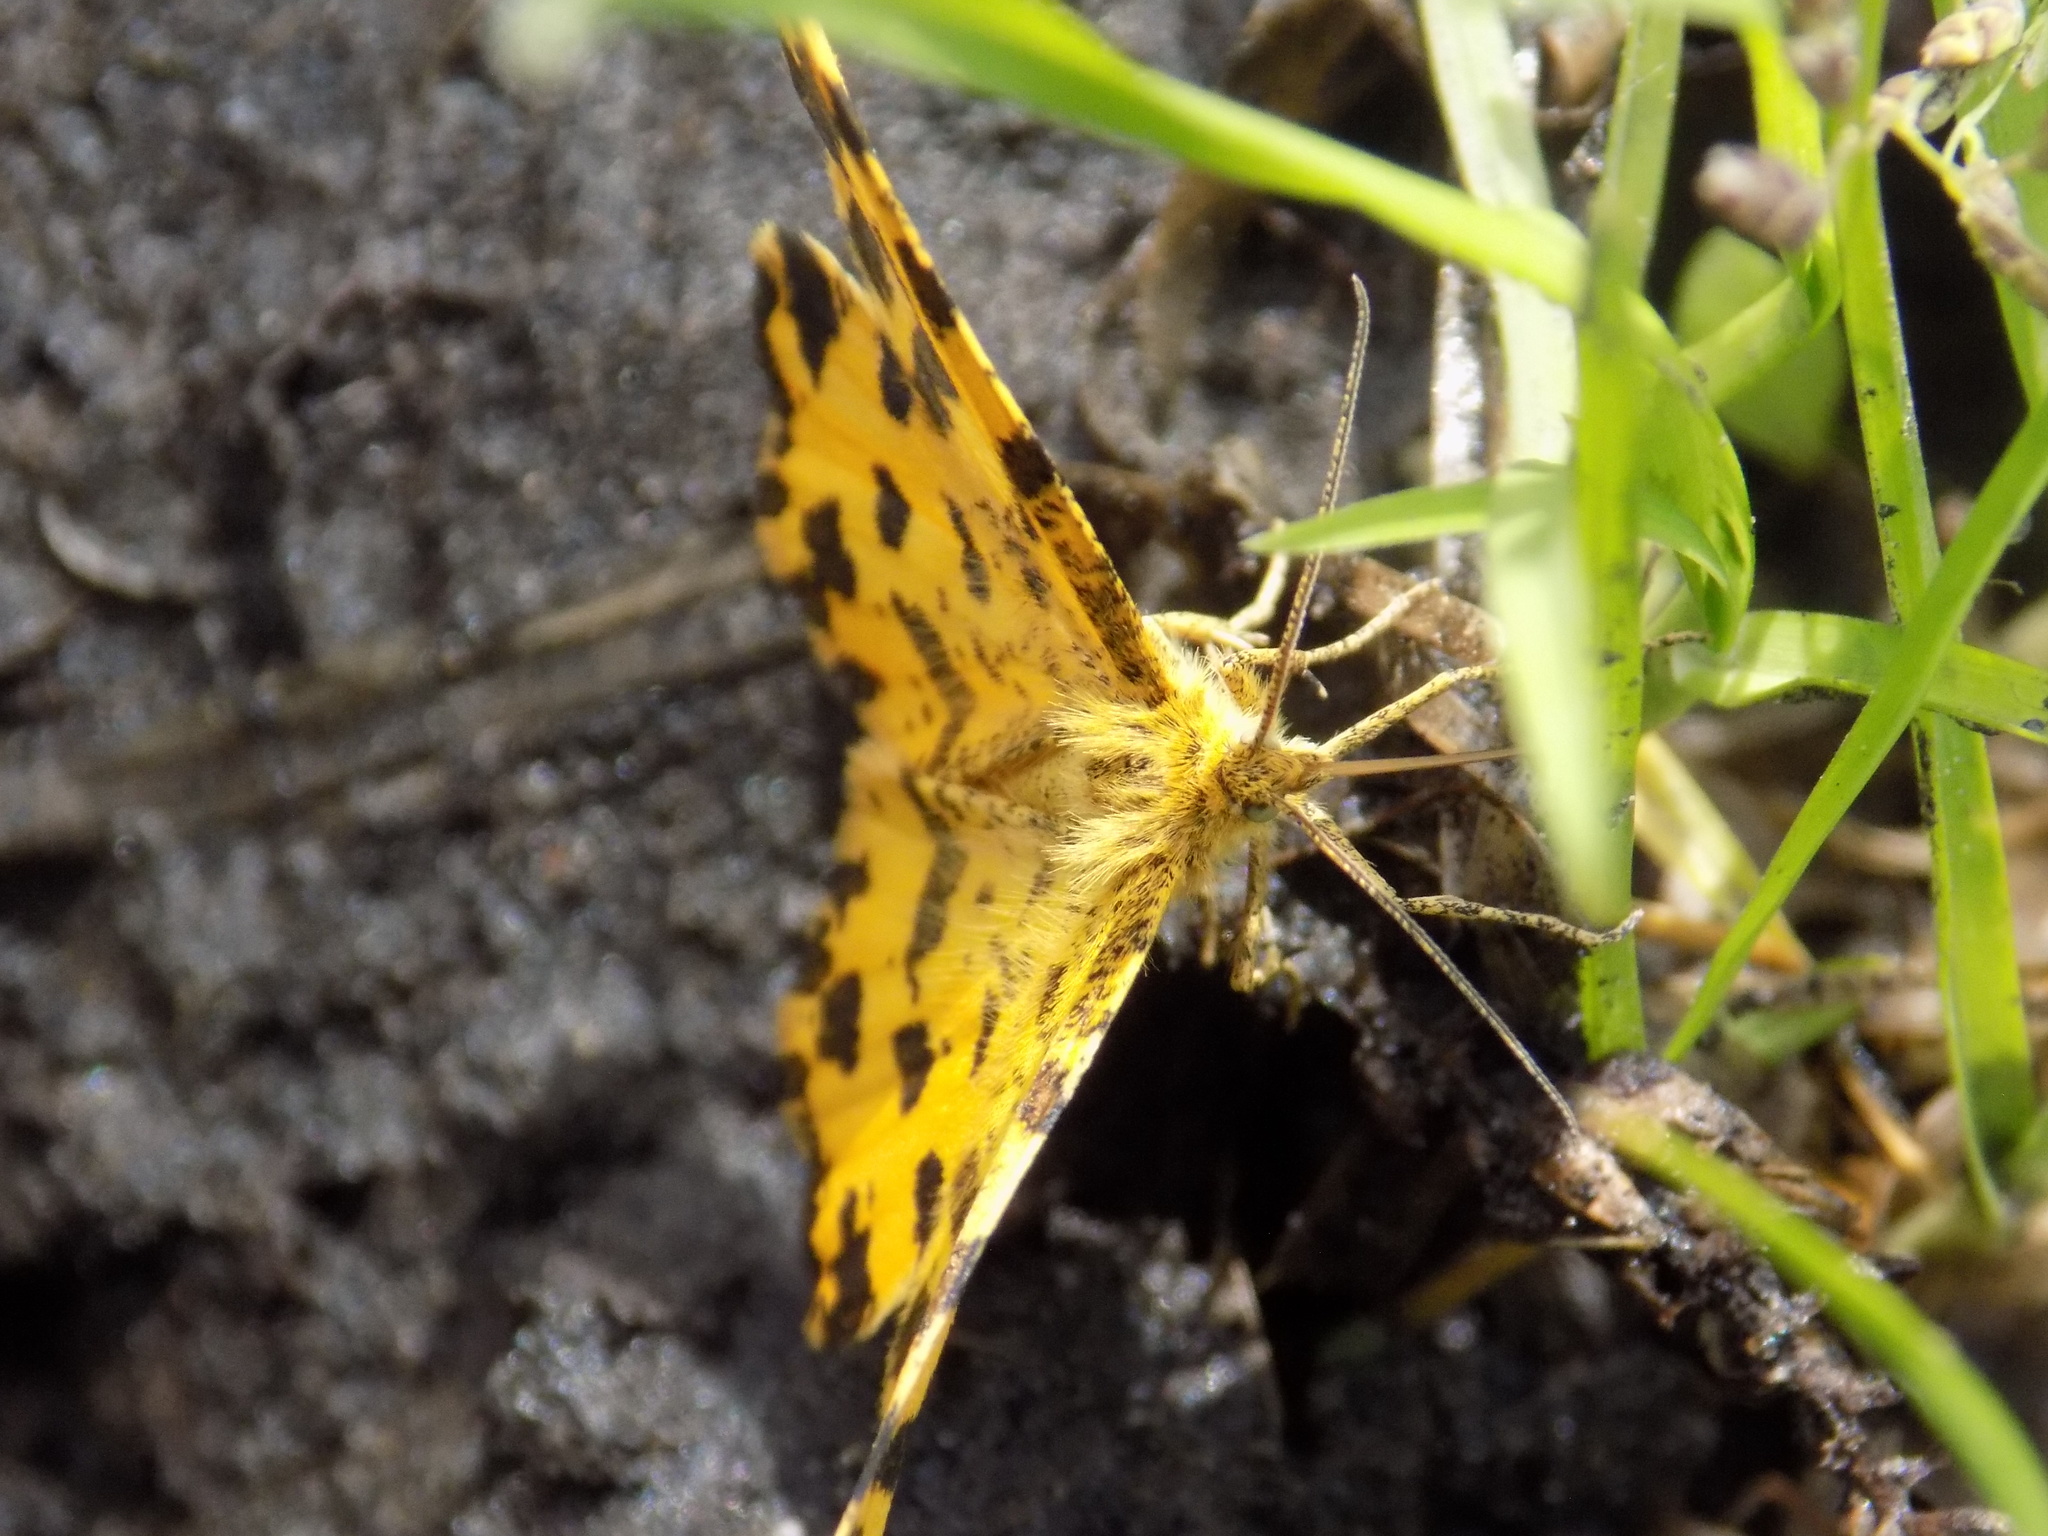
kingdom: Animalia
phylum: Arthropoda
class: Insecta
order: Lepidoptera
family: Geometridae
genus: Pseudopanthera
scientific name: Pseudopanthera macularia
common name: Speckled yellow
